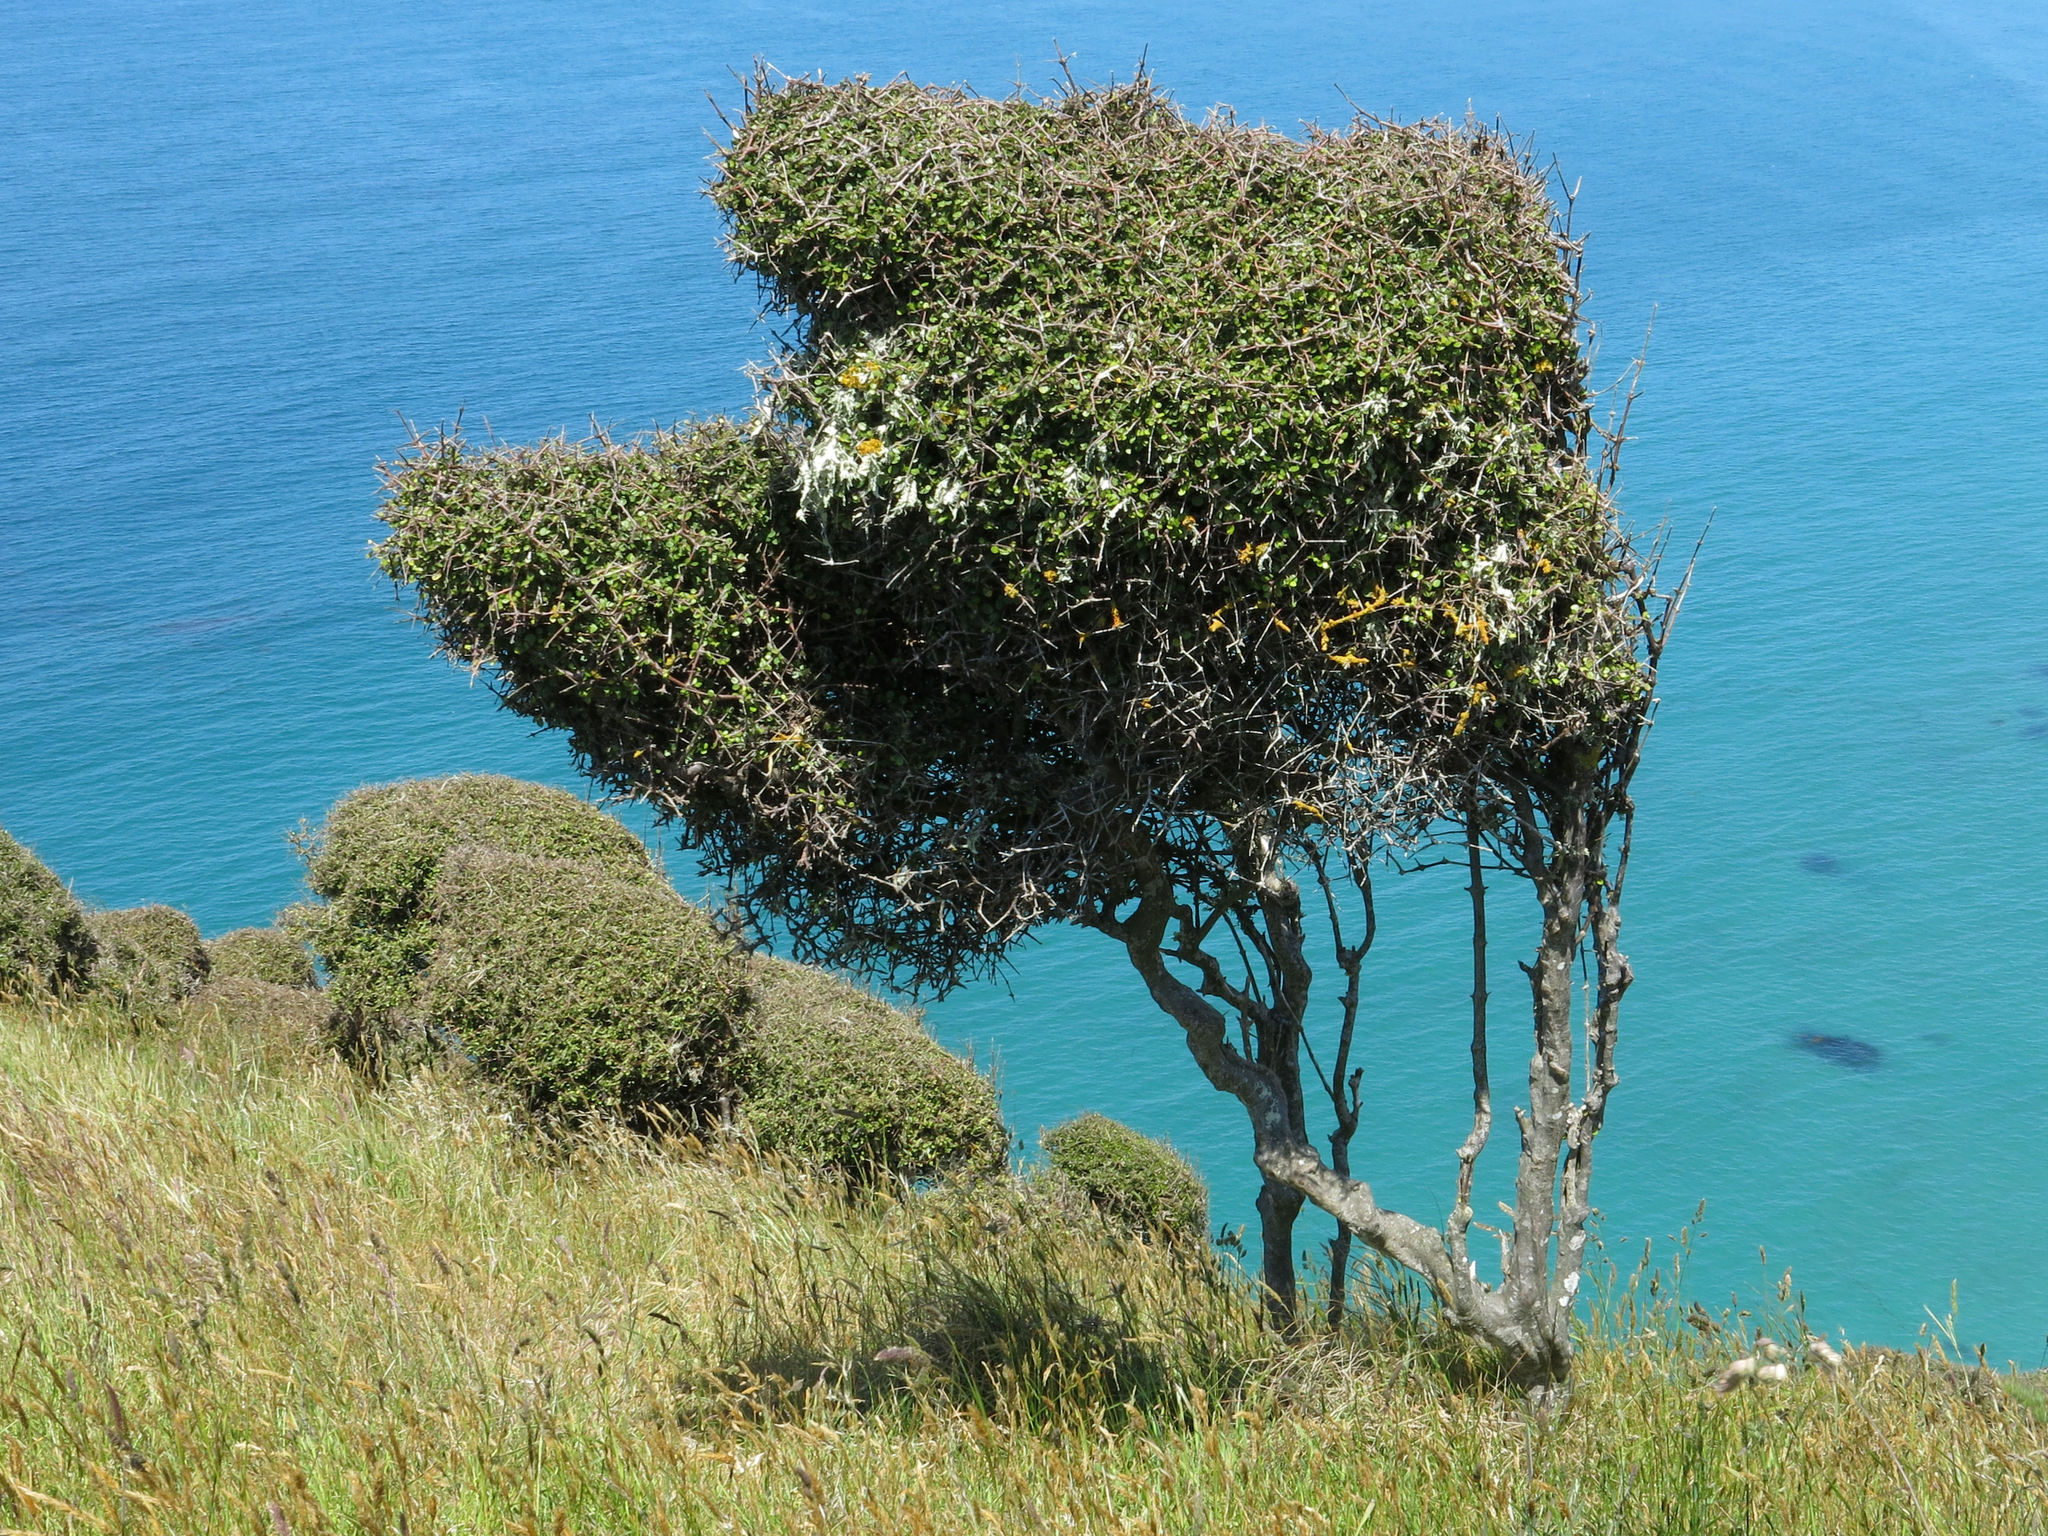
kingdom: Plantae
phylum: Tracheophyta
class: Magnoliopsida
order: Gentianales
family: Rubiaceae
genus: Coprosma
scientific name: Coprosma crassifolia
